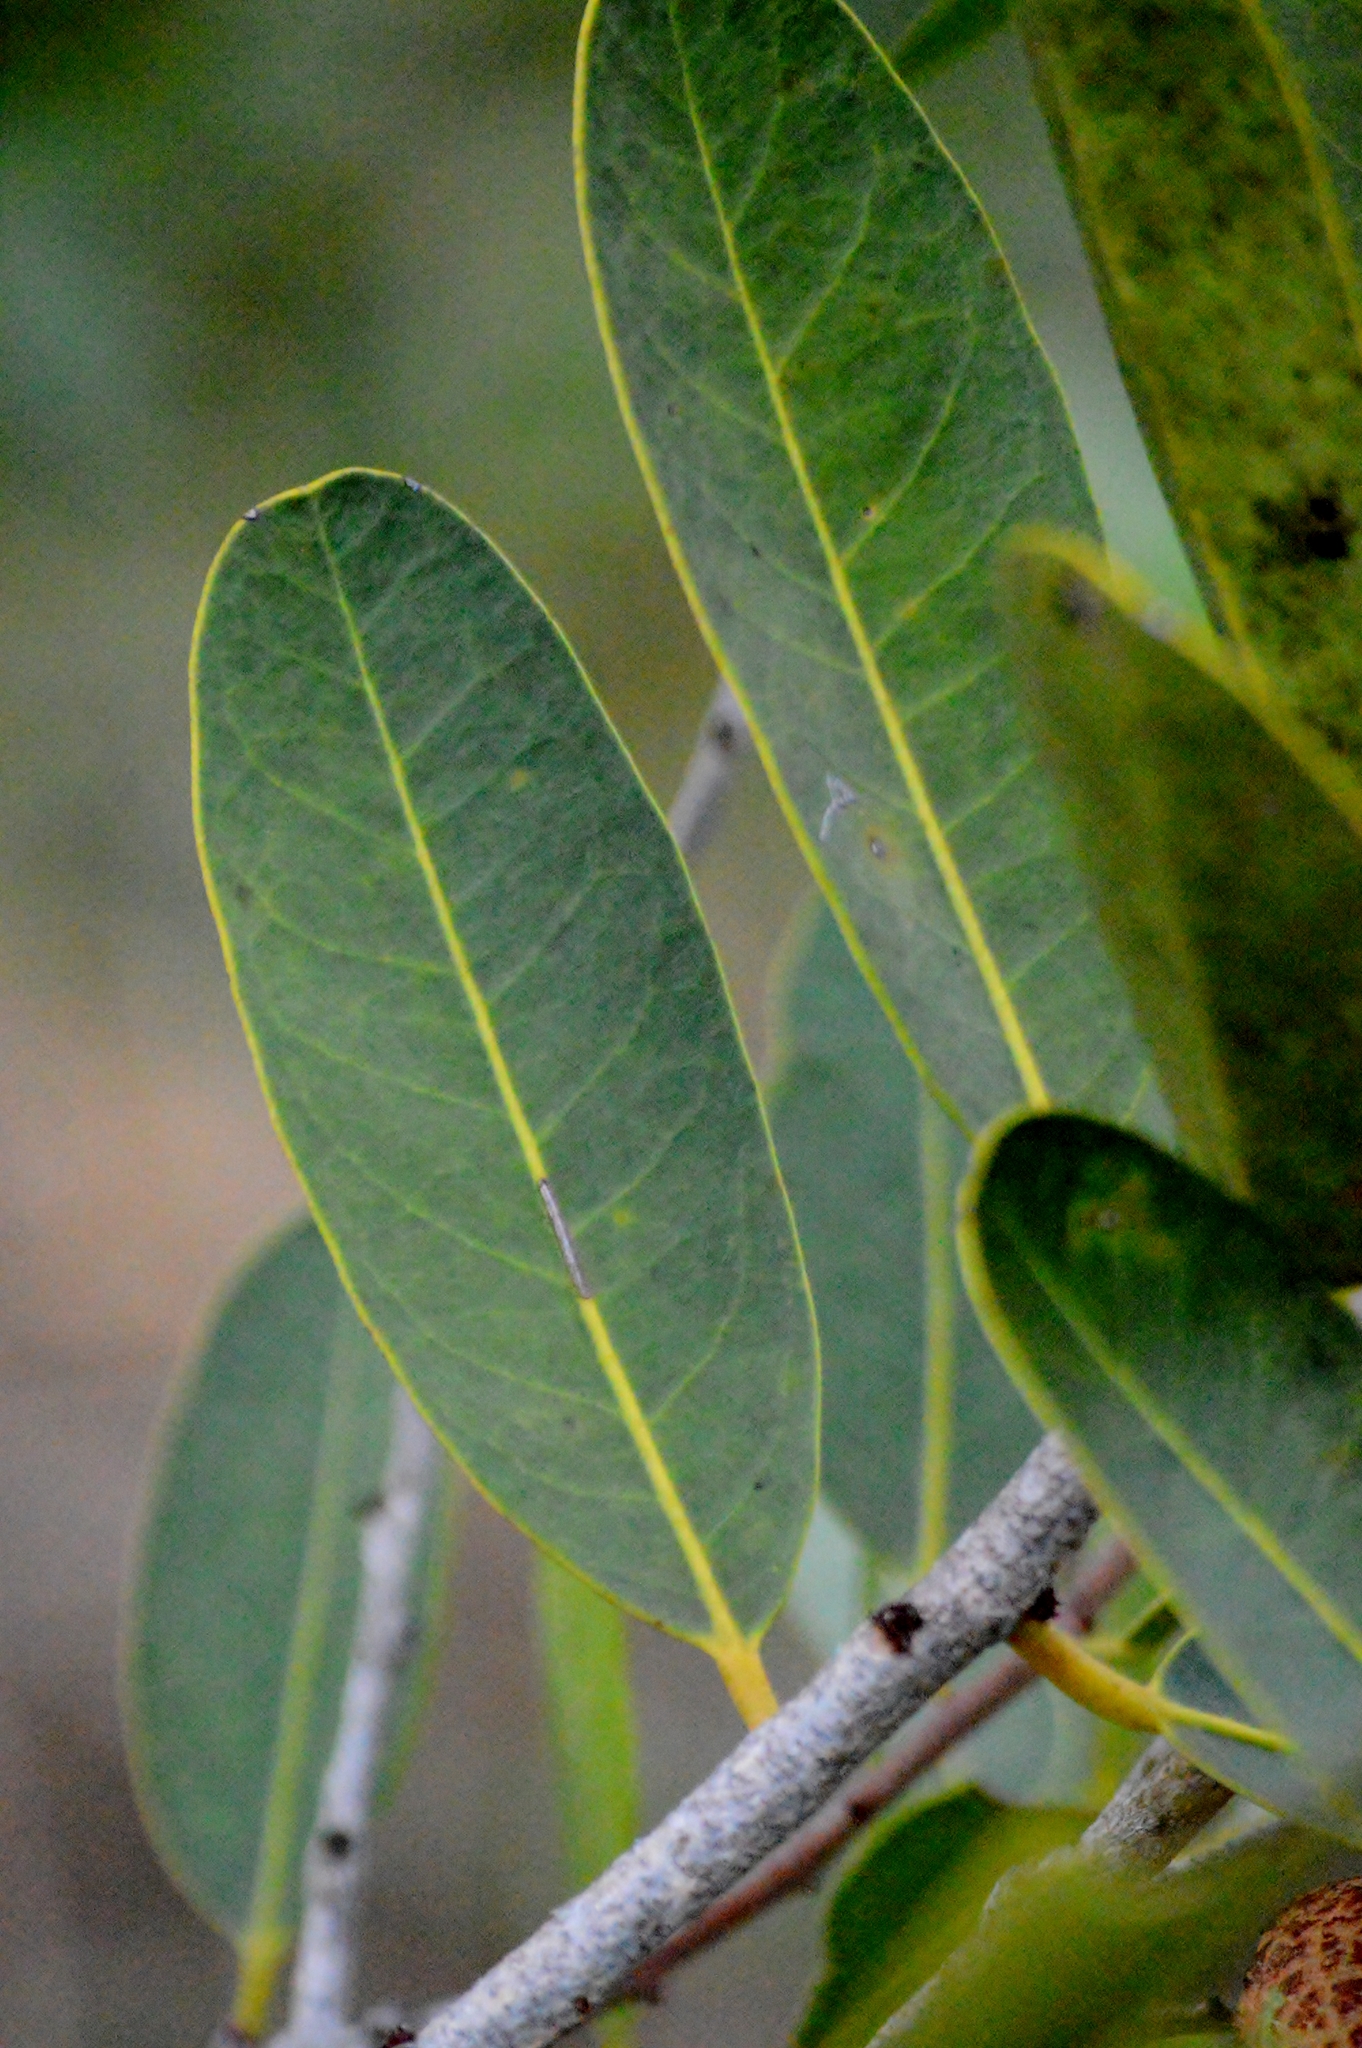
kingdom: Plantae
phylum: Tracheophyta
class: Magnoliopsida
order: Celastrales
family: Celastraceae
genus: Salacia
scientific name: Salacia crassifolia
